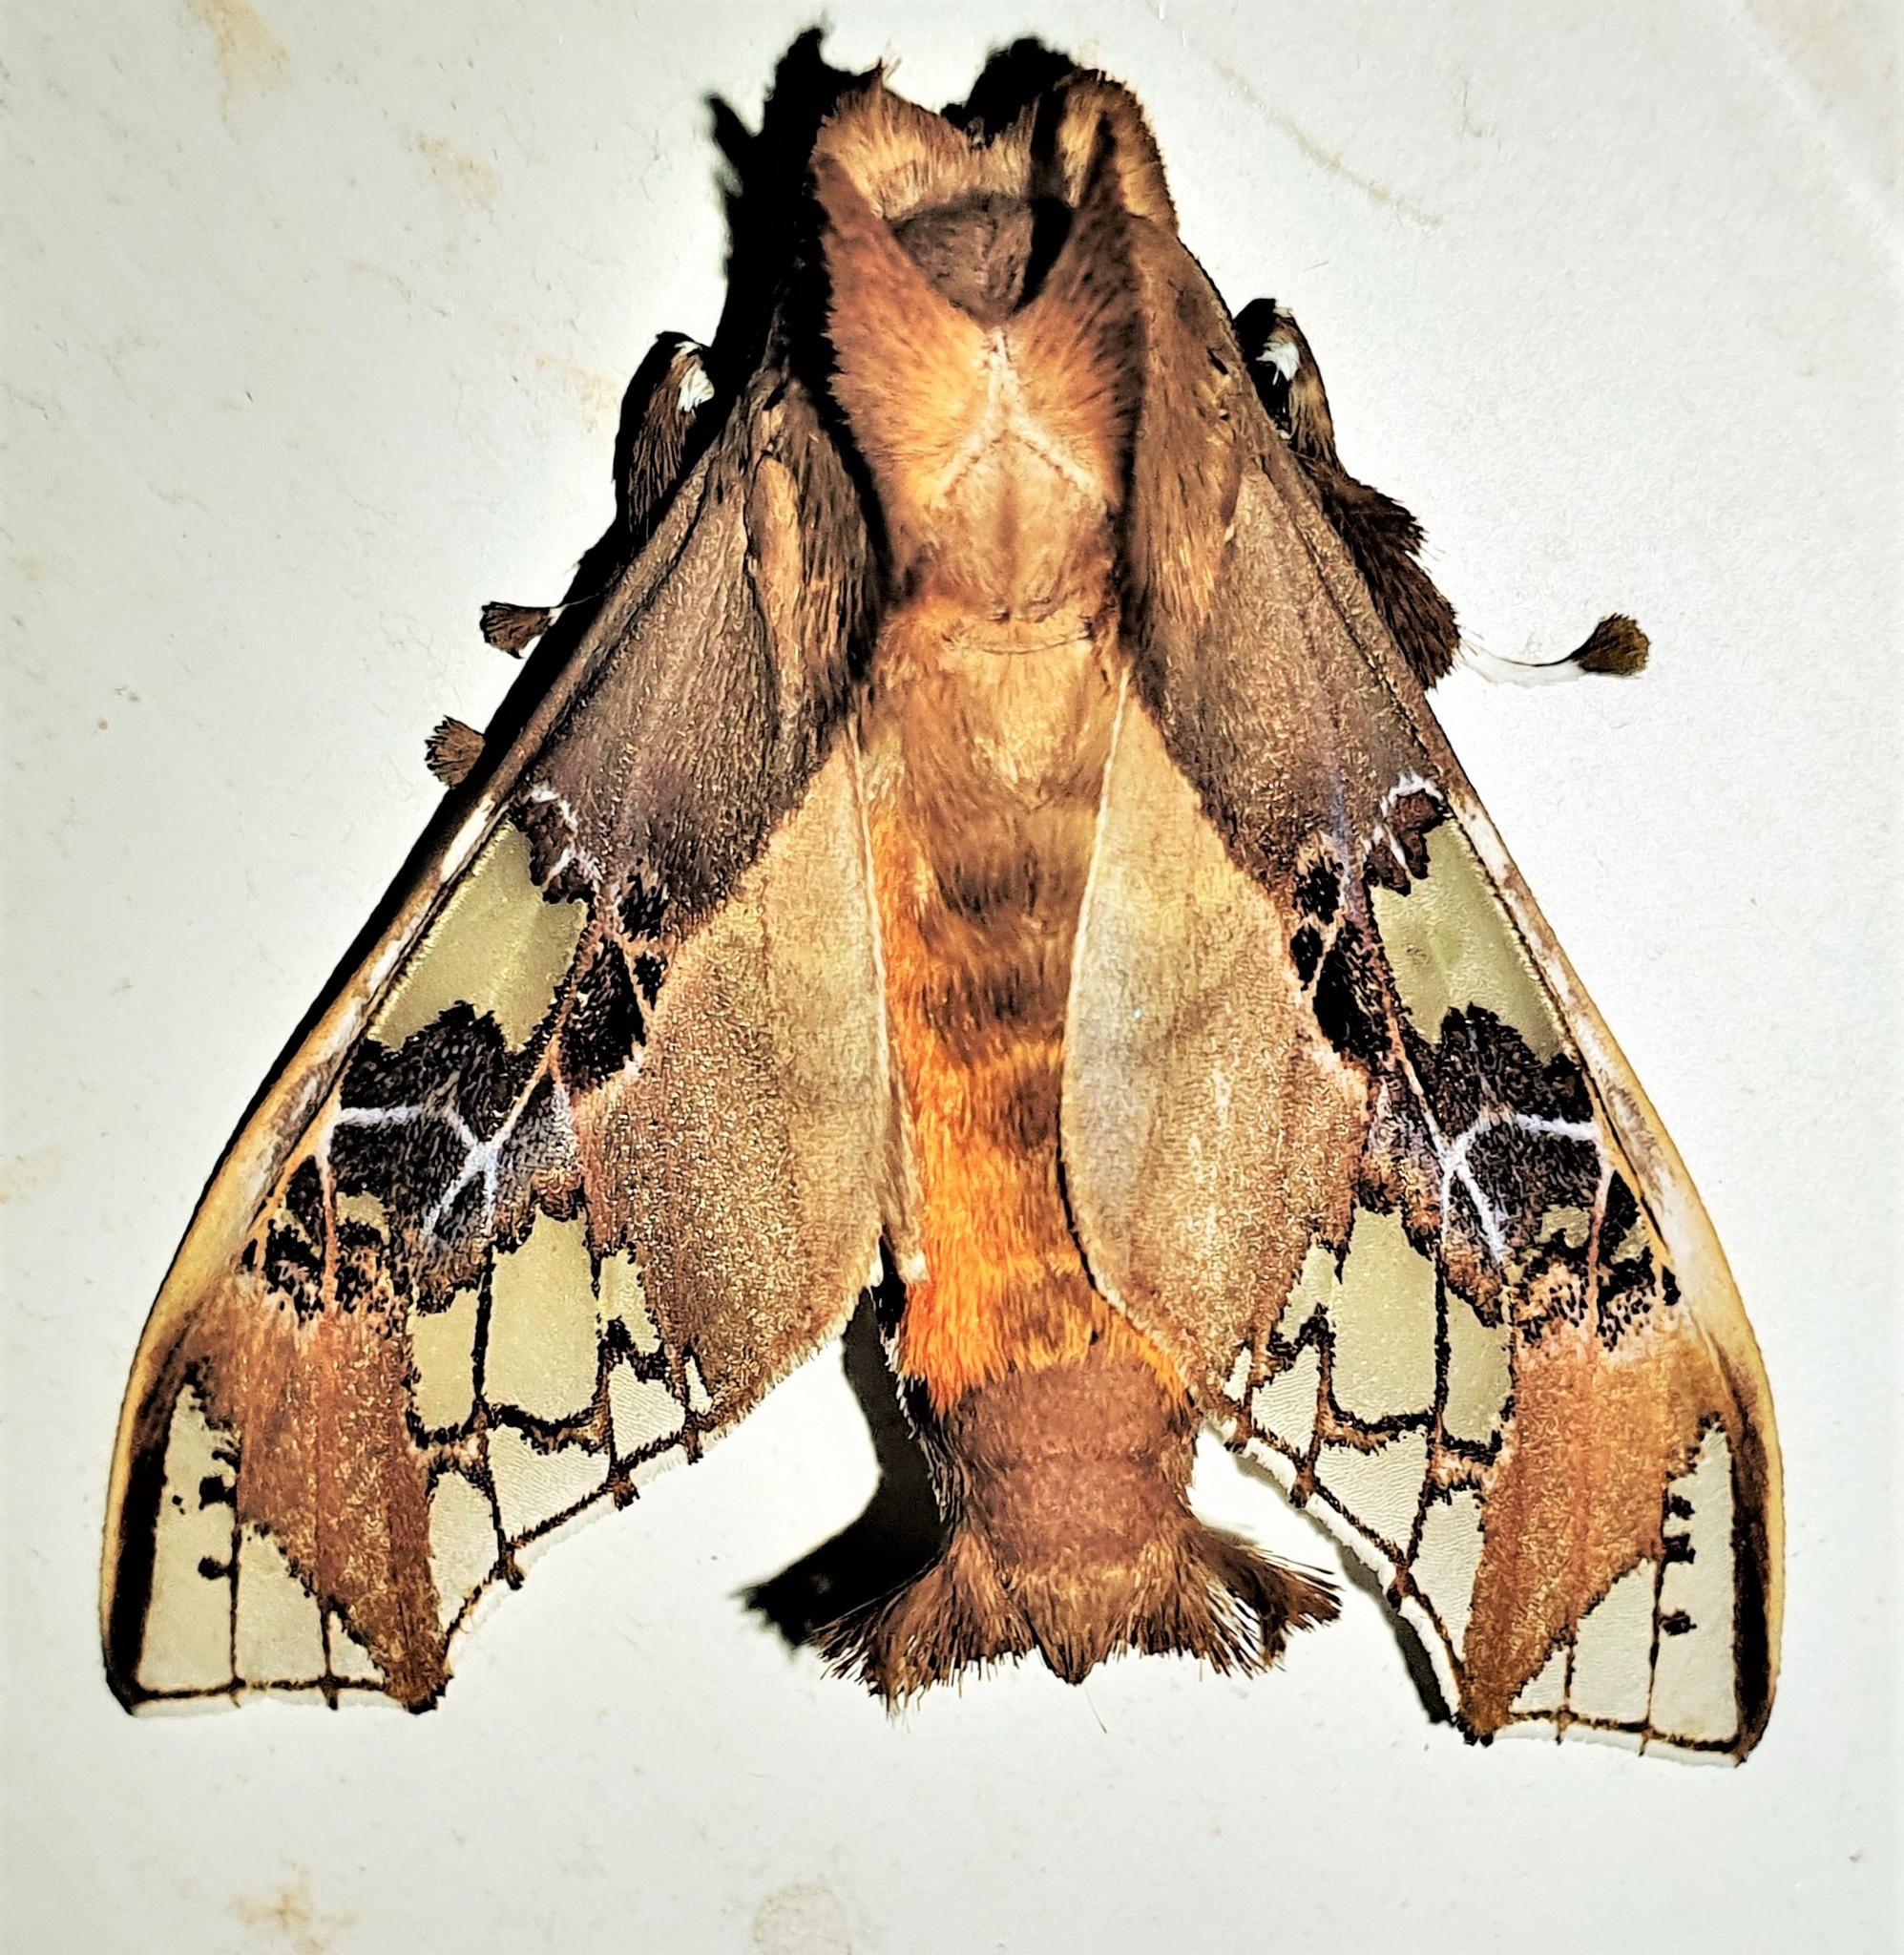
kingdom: Animalia
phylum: Arthropoda
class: Insecta
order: Lepidoptera
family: Erebidae
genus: Parathyris
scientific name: Parathyris cedonulli
